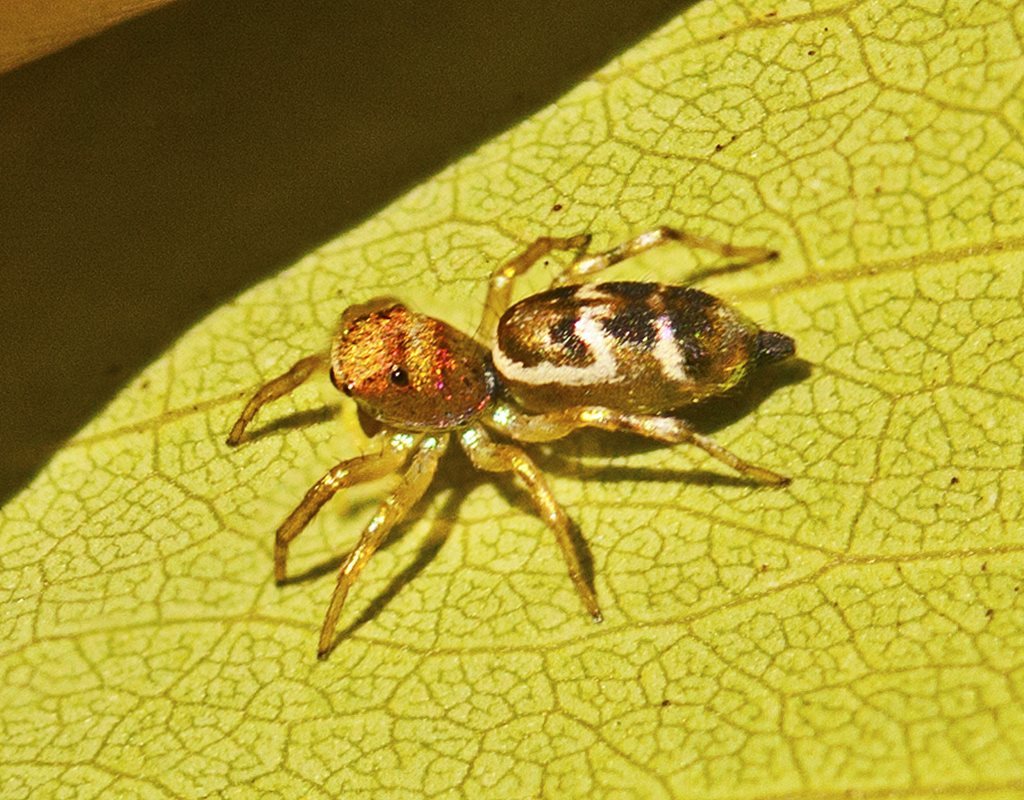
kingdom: Animalia
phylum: Arthropoda
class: Arachnida
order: Araneae
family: Salticidae
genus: Cosmophasis
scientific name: Cosmophasis baehrae
